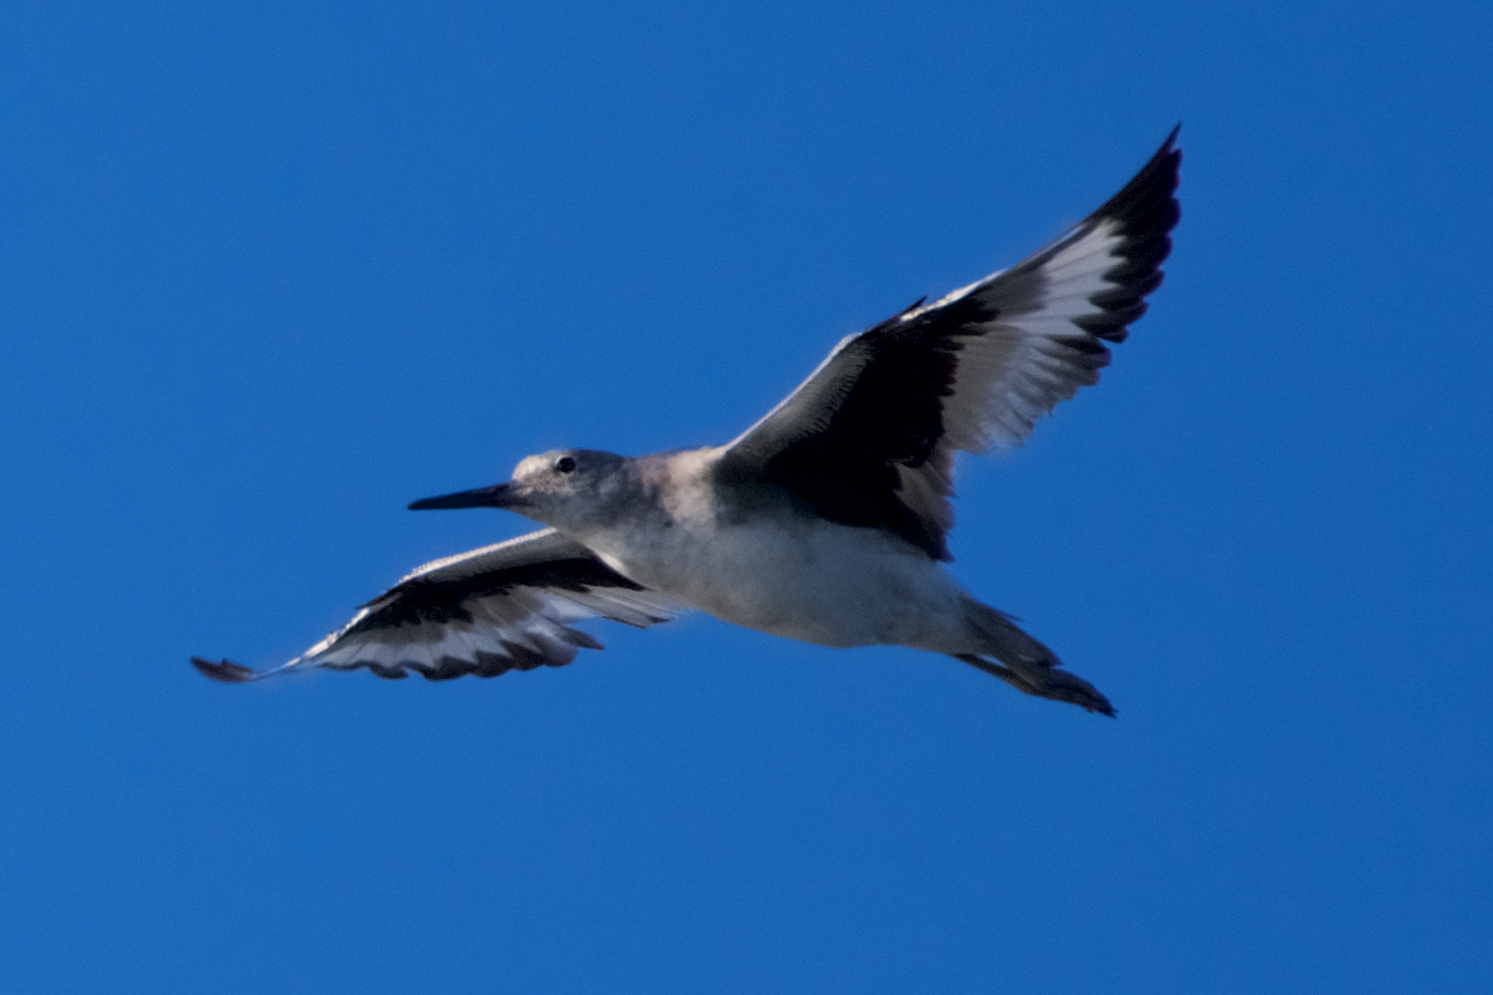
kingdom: Animalia
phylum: Chordata
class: Aves
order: Charadriiformes
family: Scolopacidae
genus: Tringa
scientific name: Tringa semipalmata
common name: Willet
